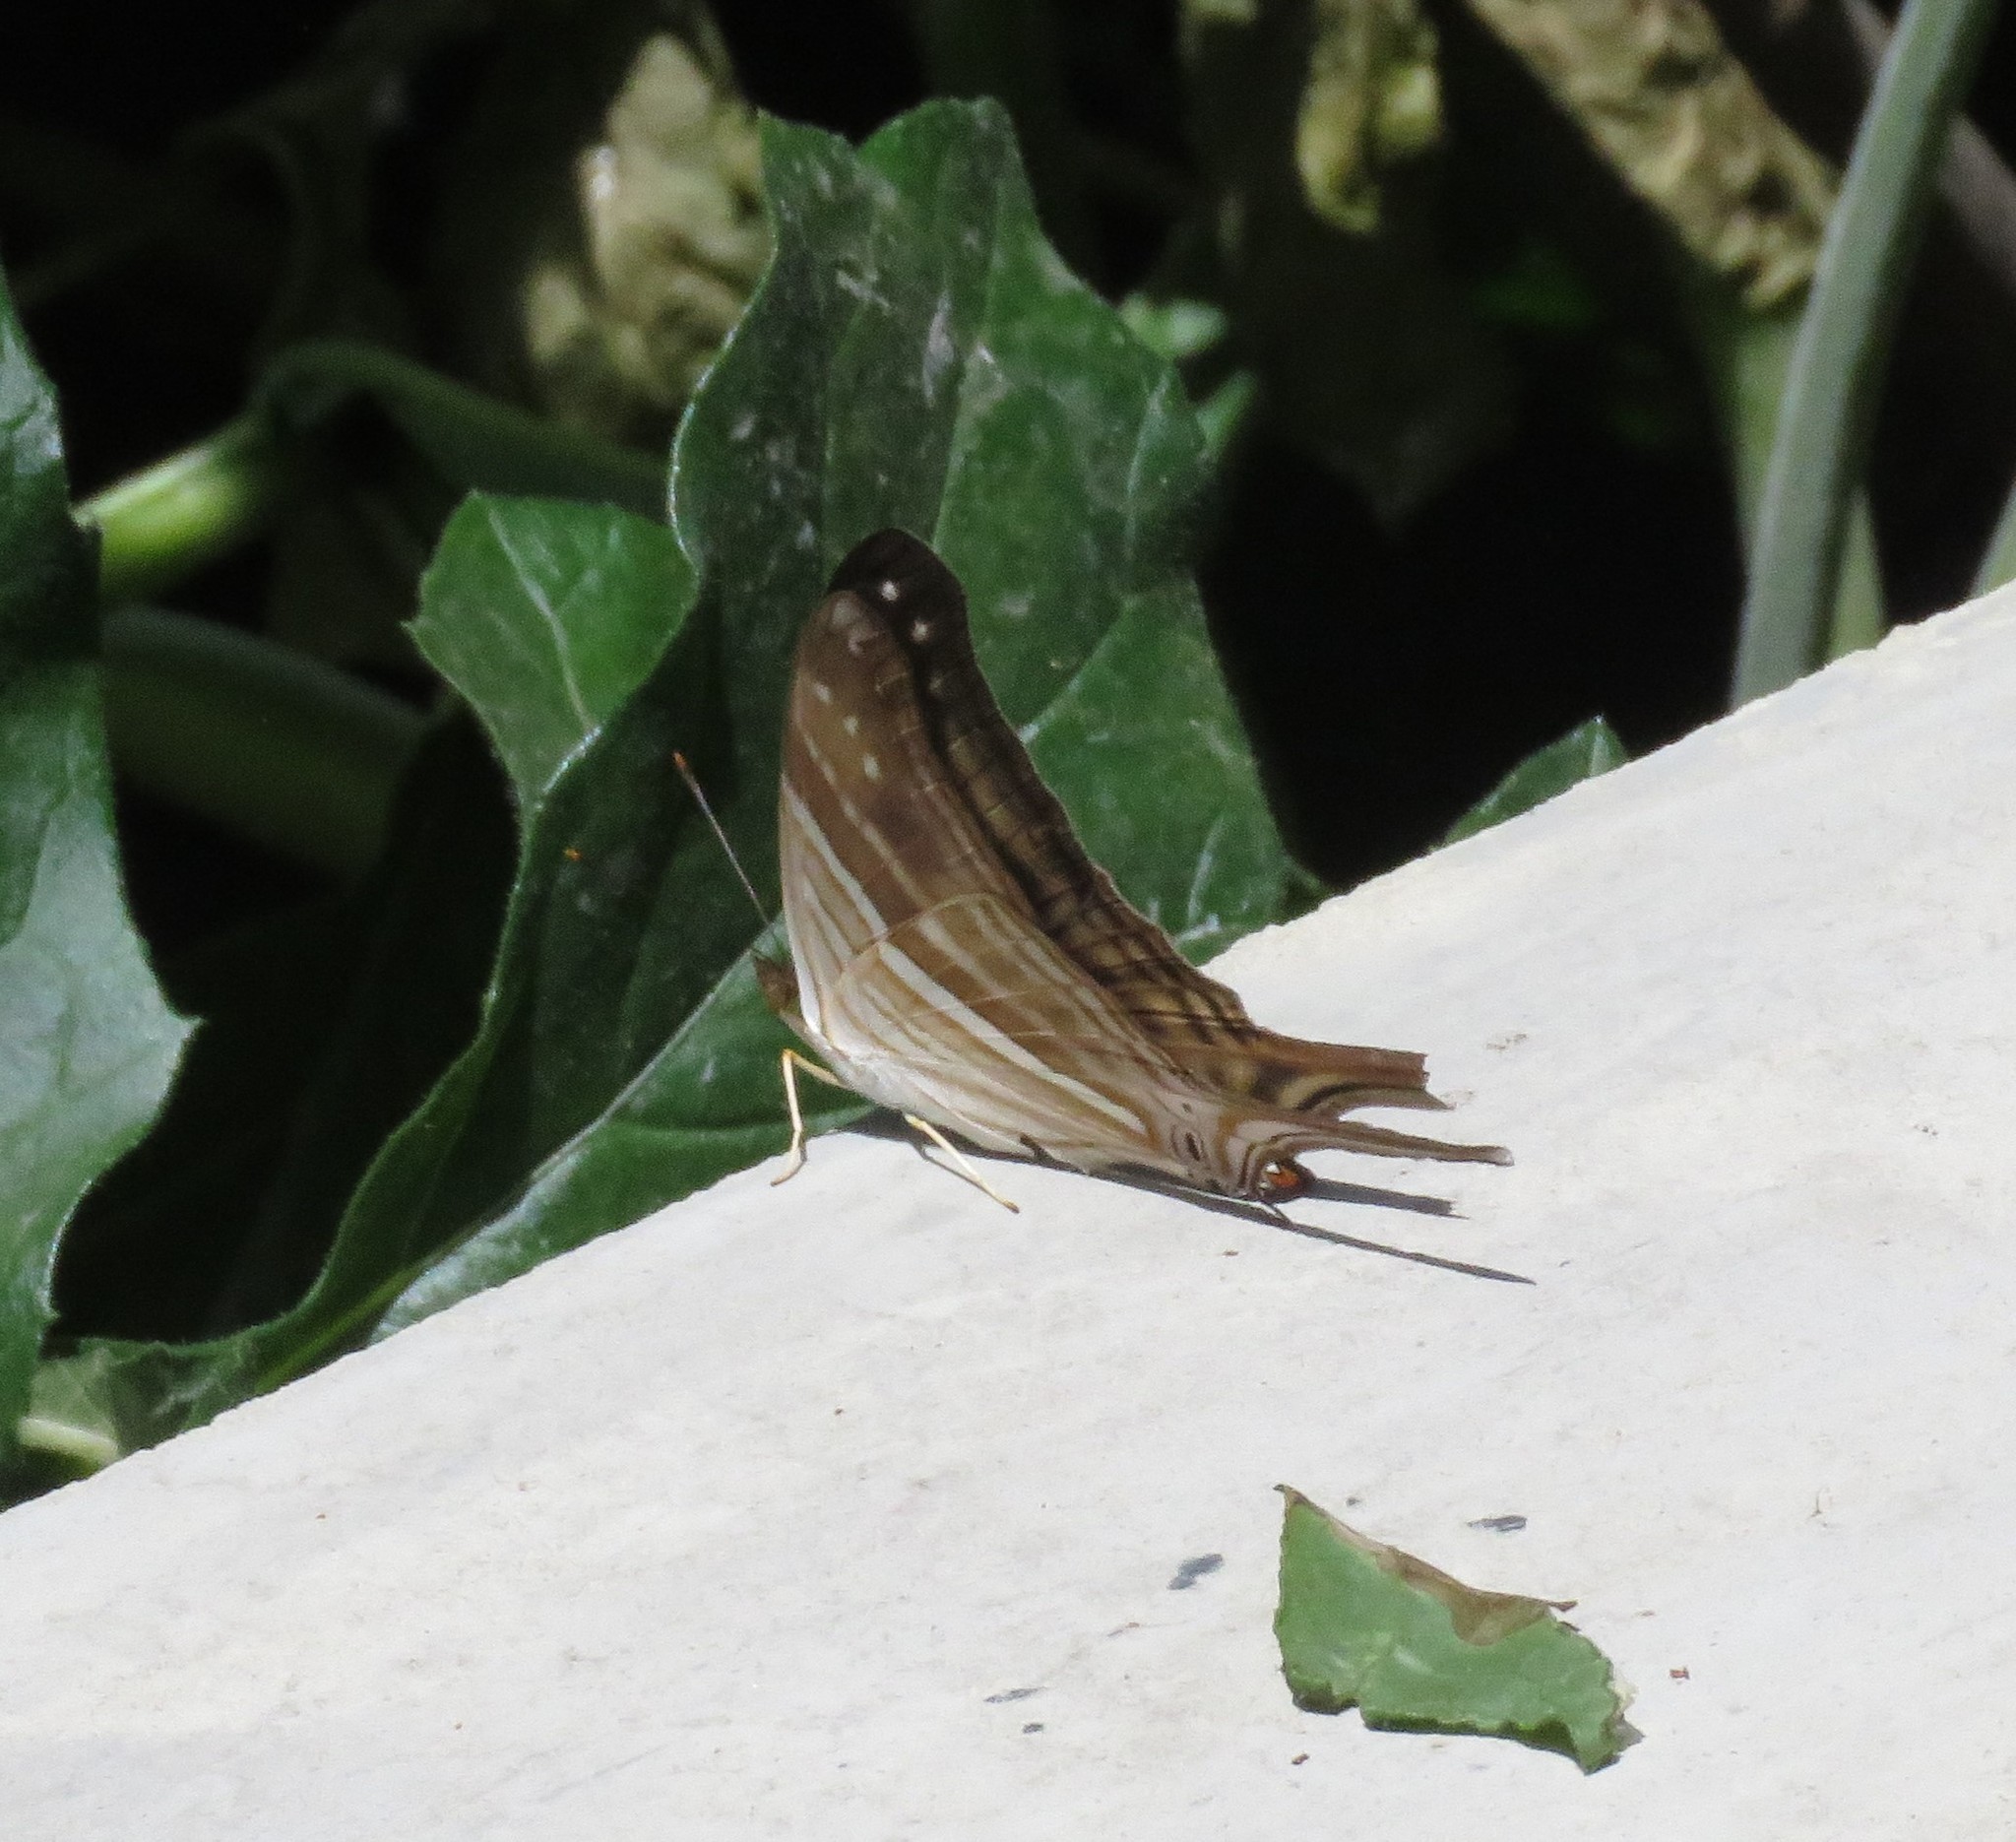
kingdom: Animalia
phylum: Arthropoda
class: Insecta
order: Lepidoptera
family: Nymphalidae
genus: Marpesia
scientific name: Marpesia chiron
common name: Many-banded daggerwing
